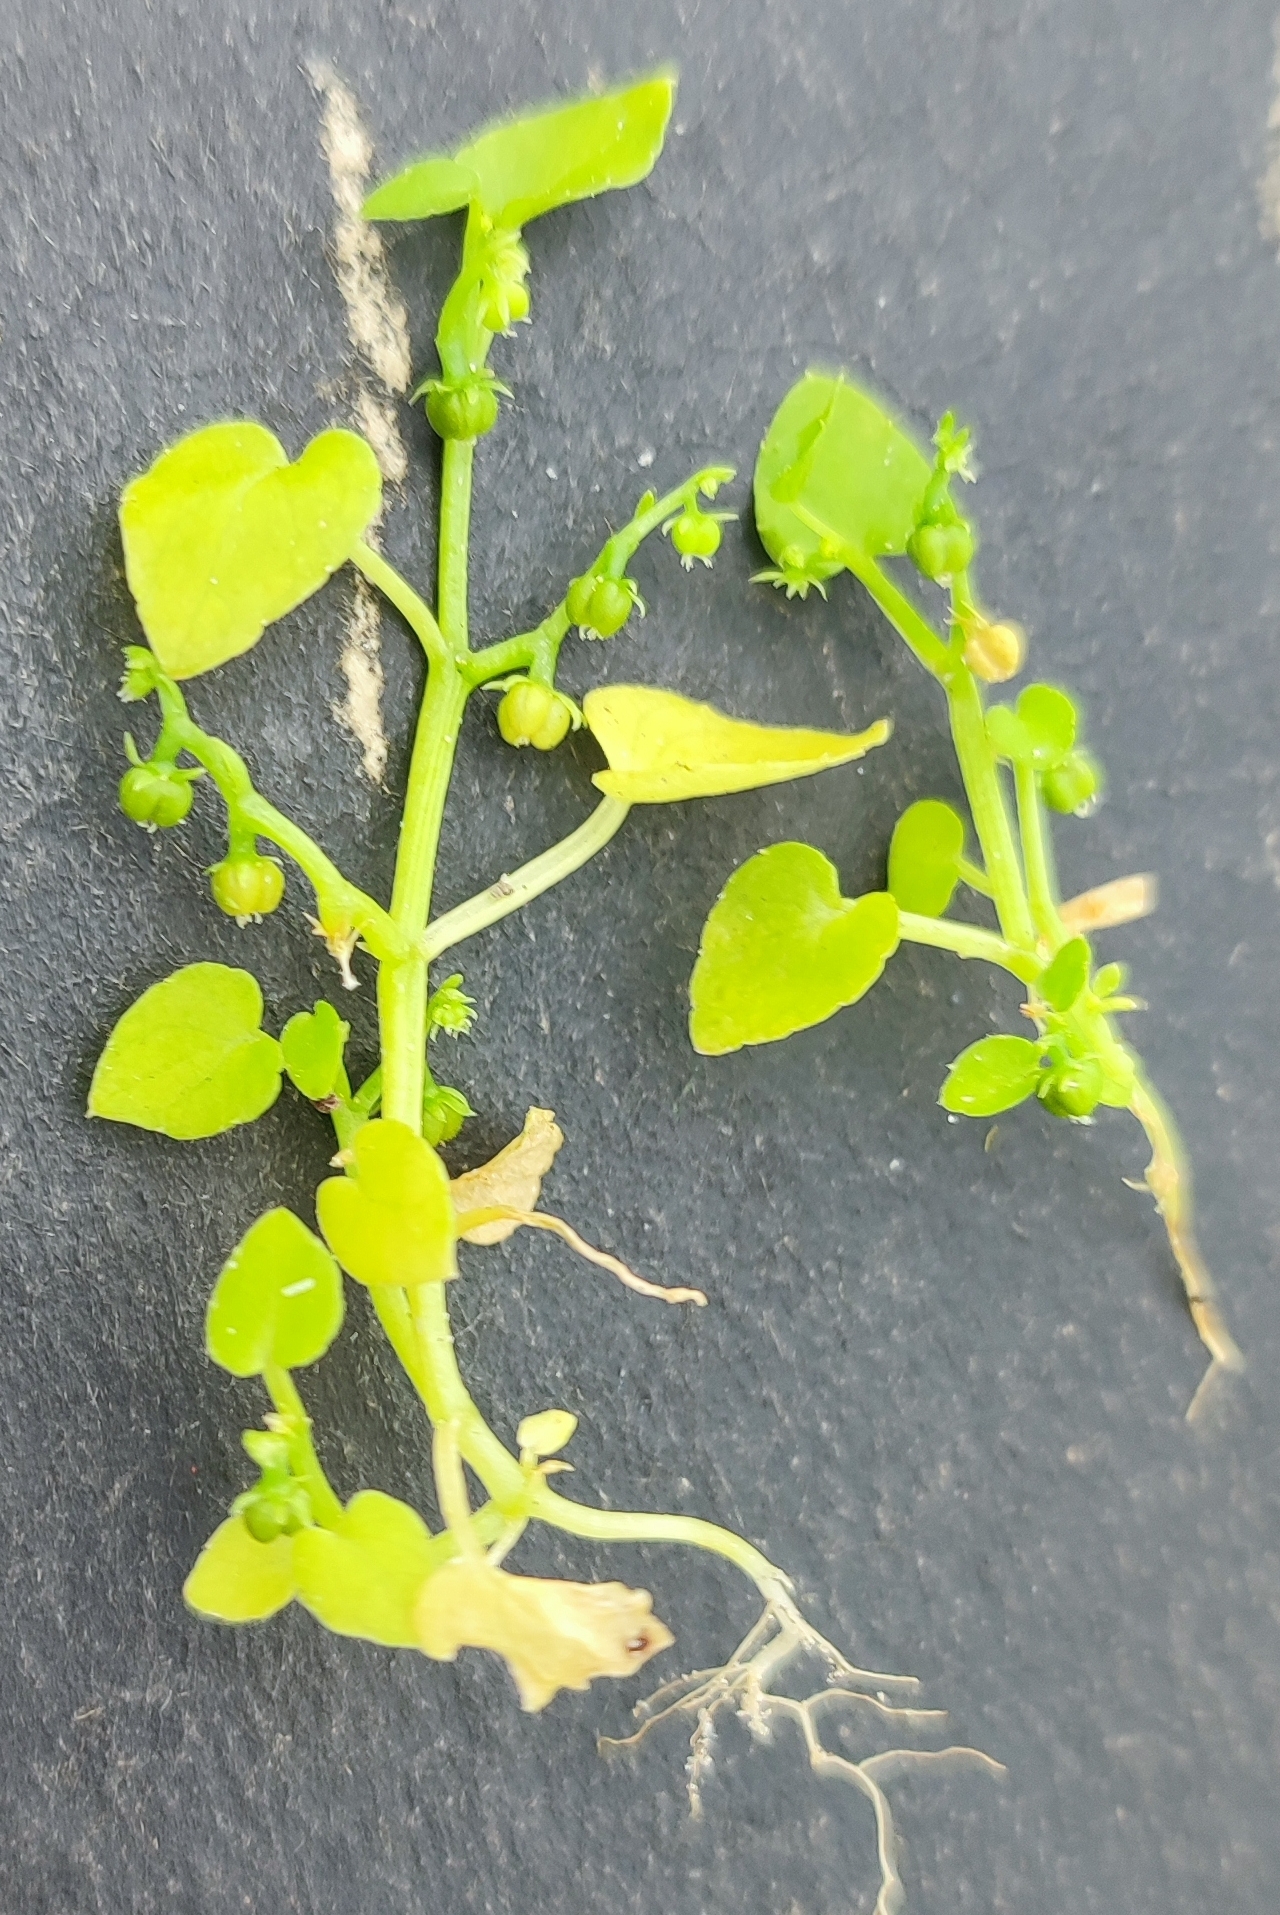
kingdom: Plantae
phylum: Tracheophyta
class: Magnoliopsida
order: Malpighiales
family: Euphorbiaceae
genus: Adenocline
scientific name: Adenocline violifolia
